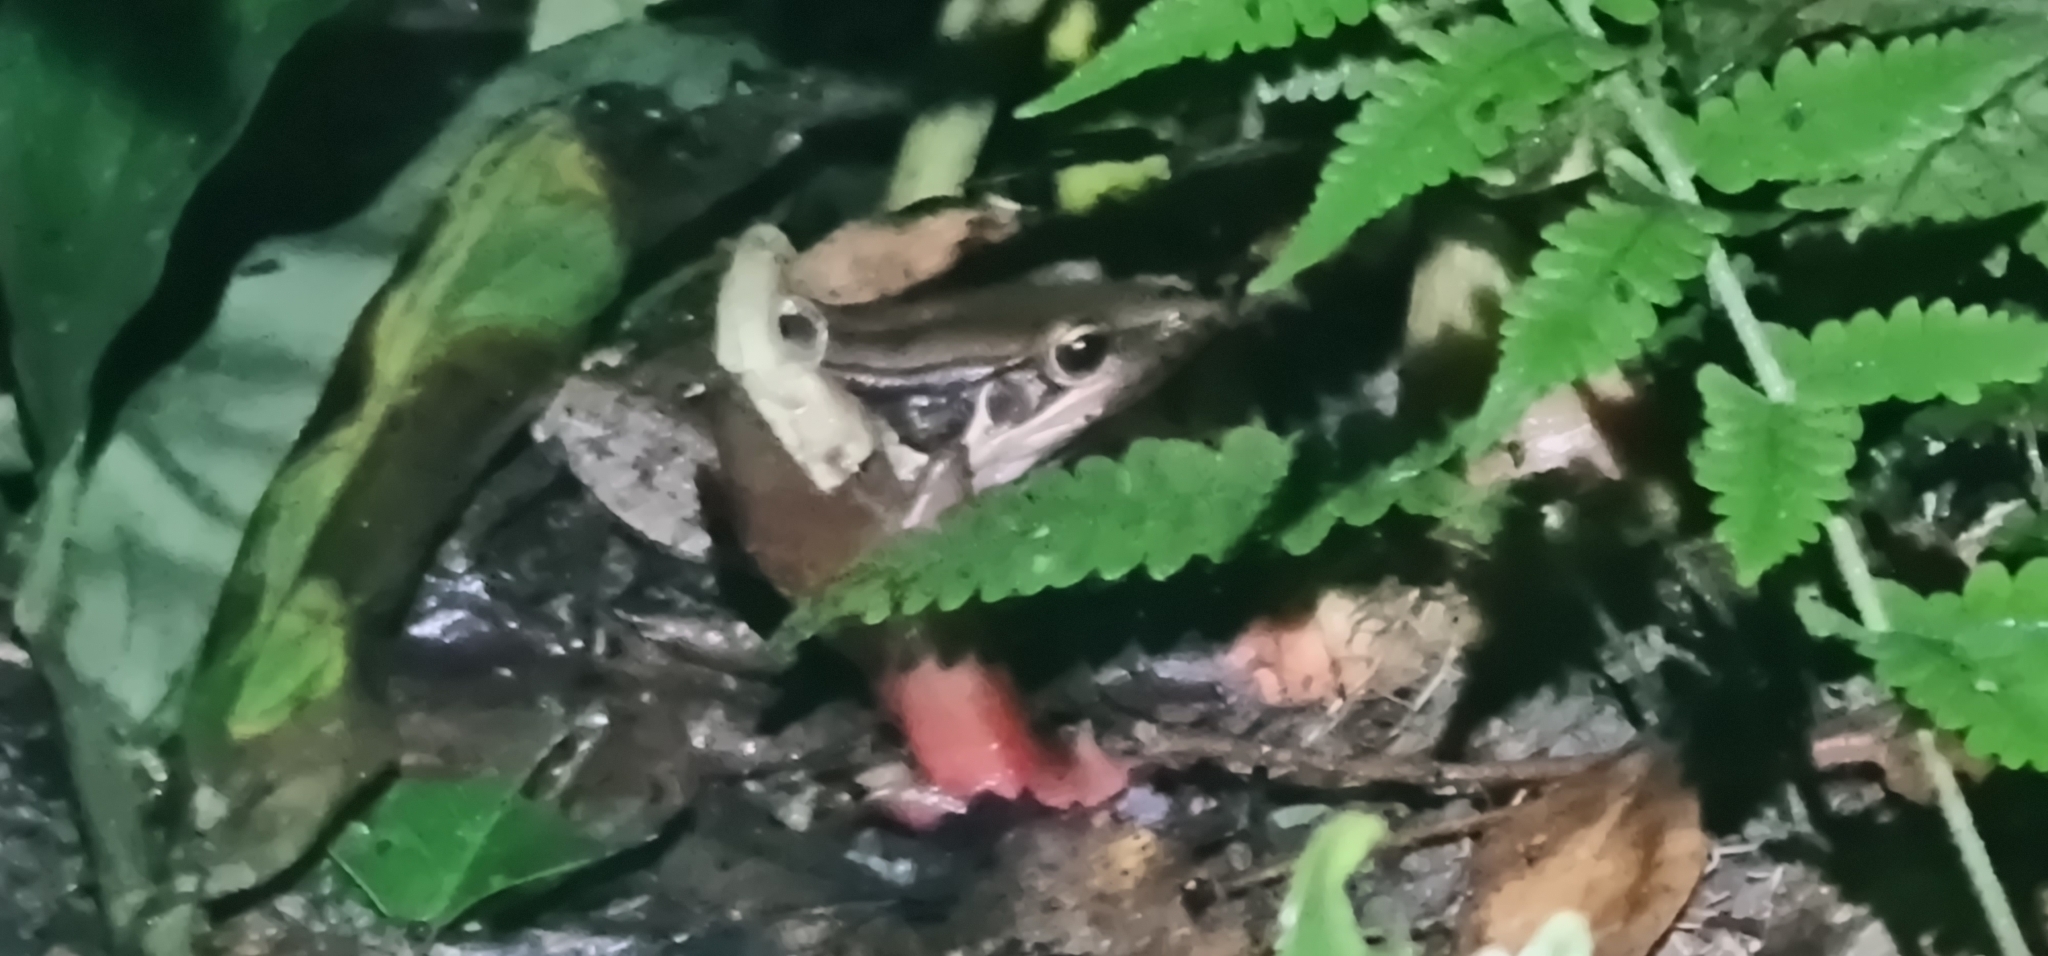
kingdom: Animalia
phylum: Chordata
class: Amphibia
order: Anura
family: Ranidae
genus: Sylvirana
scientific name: Sylvirana guentheri
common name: Guenther's amoy frog
